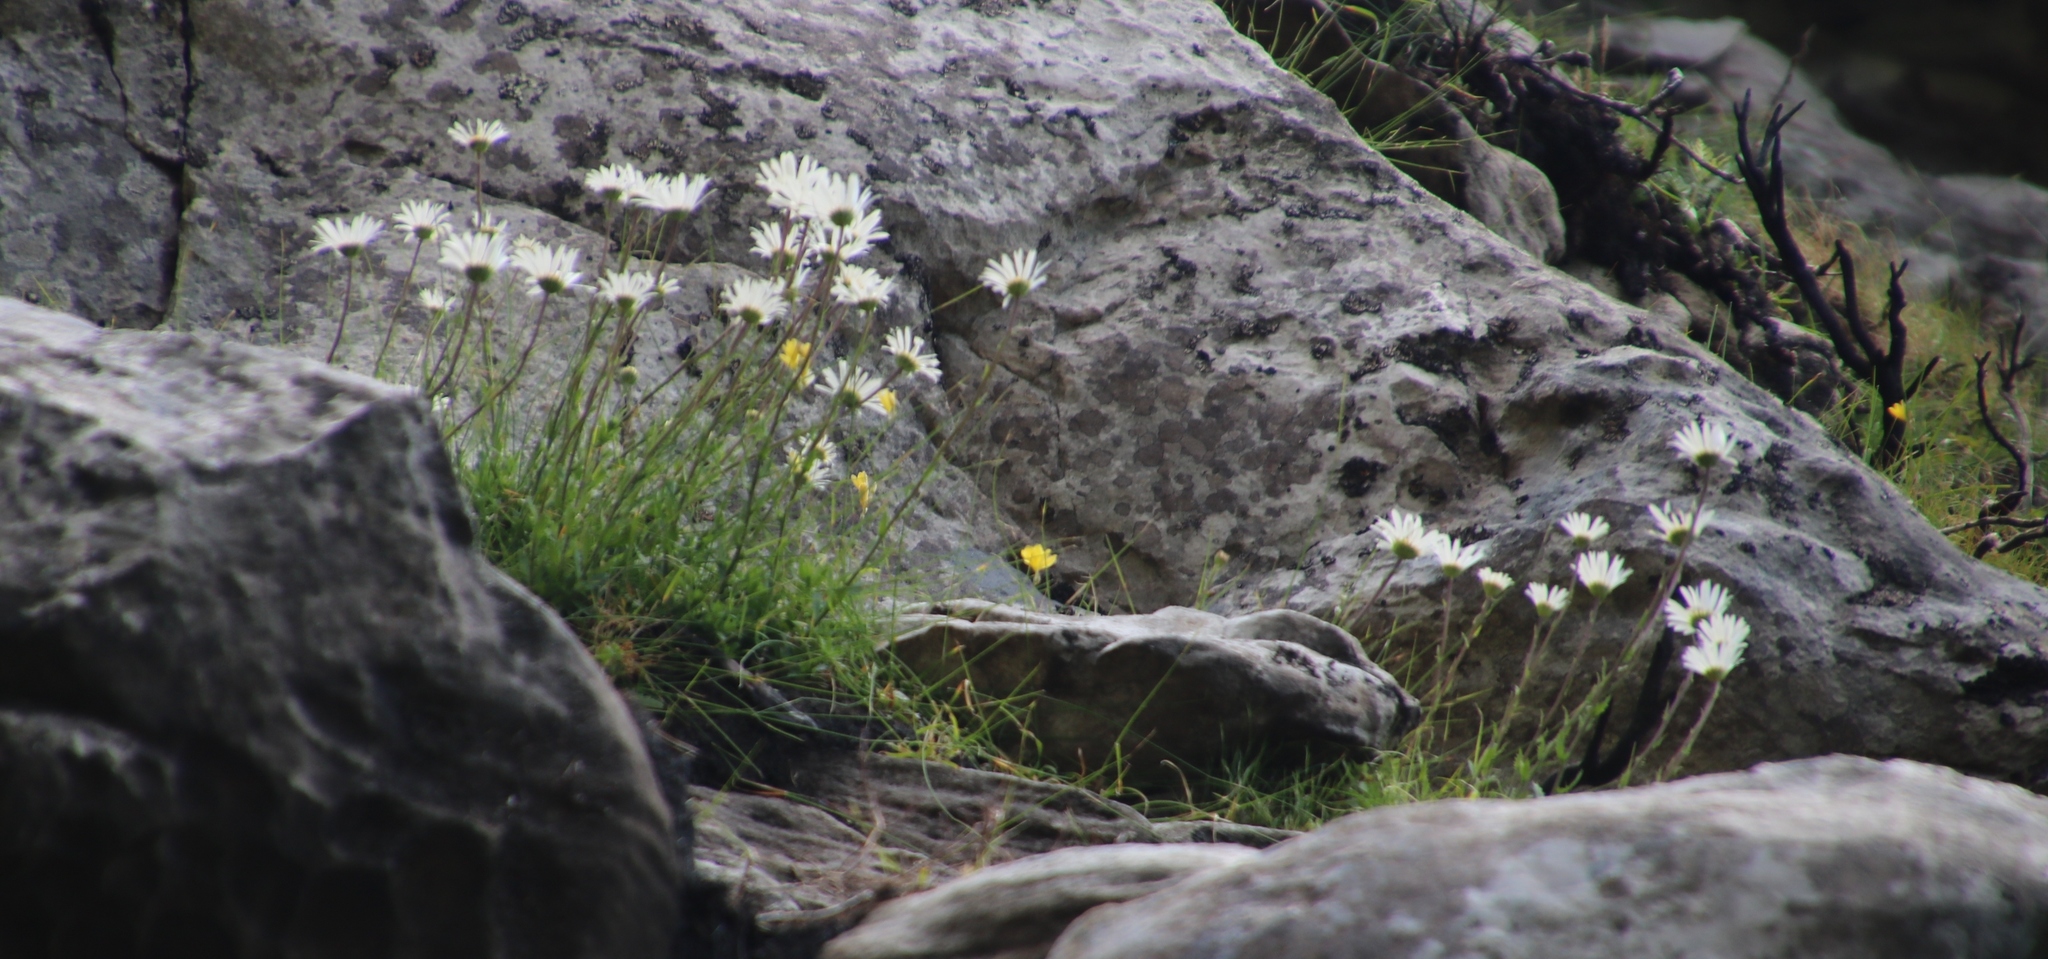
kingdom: Plantae
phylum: Tracheophyta
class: Magnoliopsida
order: Asterales
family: Asteraceae
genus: Osmitopsis
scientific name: Osmitopsis dentata
